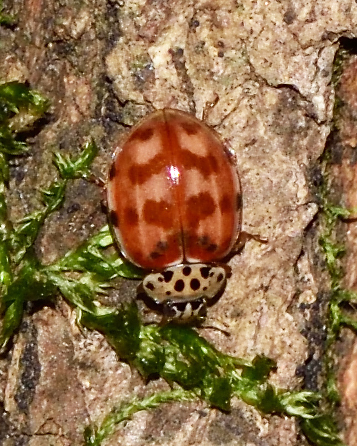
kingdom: Animalia
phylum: Arthropoda
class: Insecta
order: Coleoptera
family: Coccinellidae
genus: Harmonia
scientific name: Harmonia quadripunctata
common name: Cream-streaked ladybird
